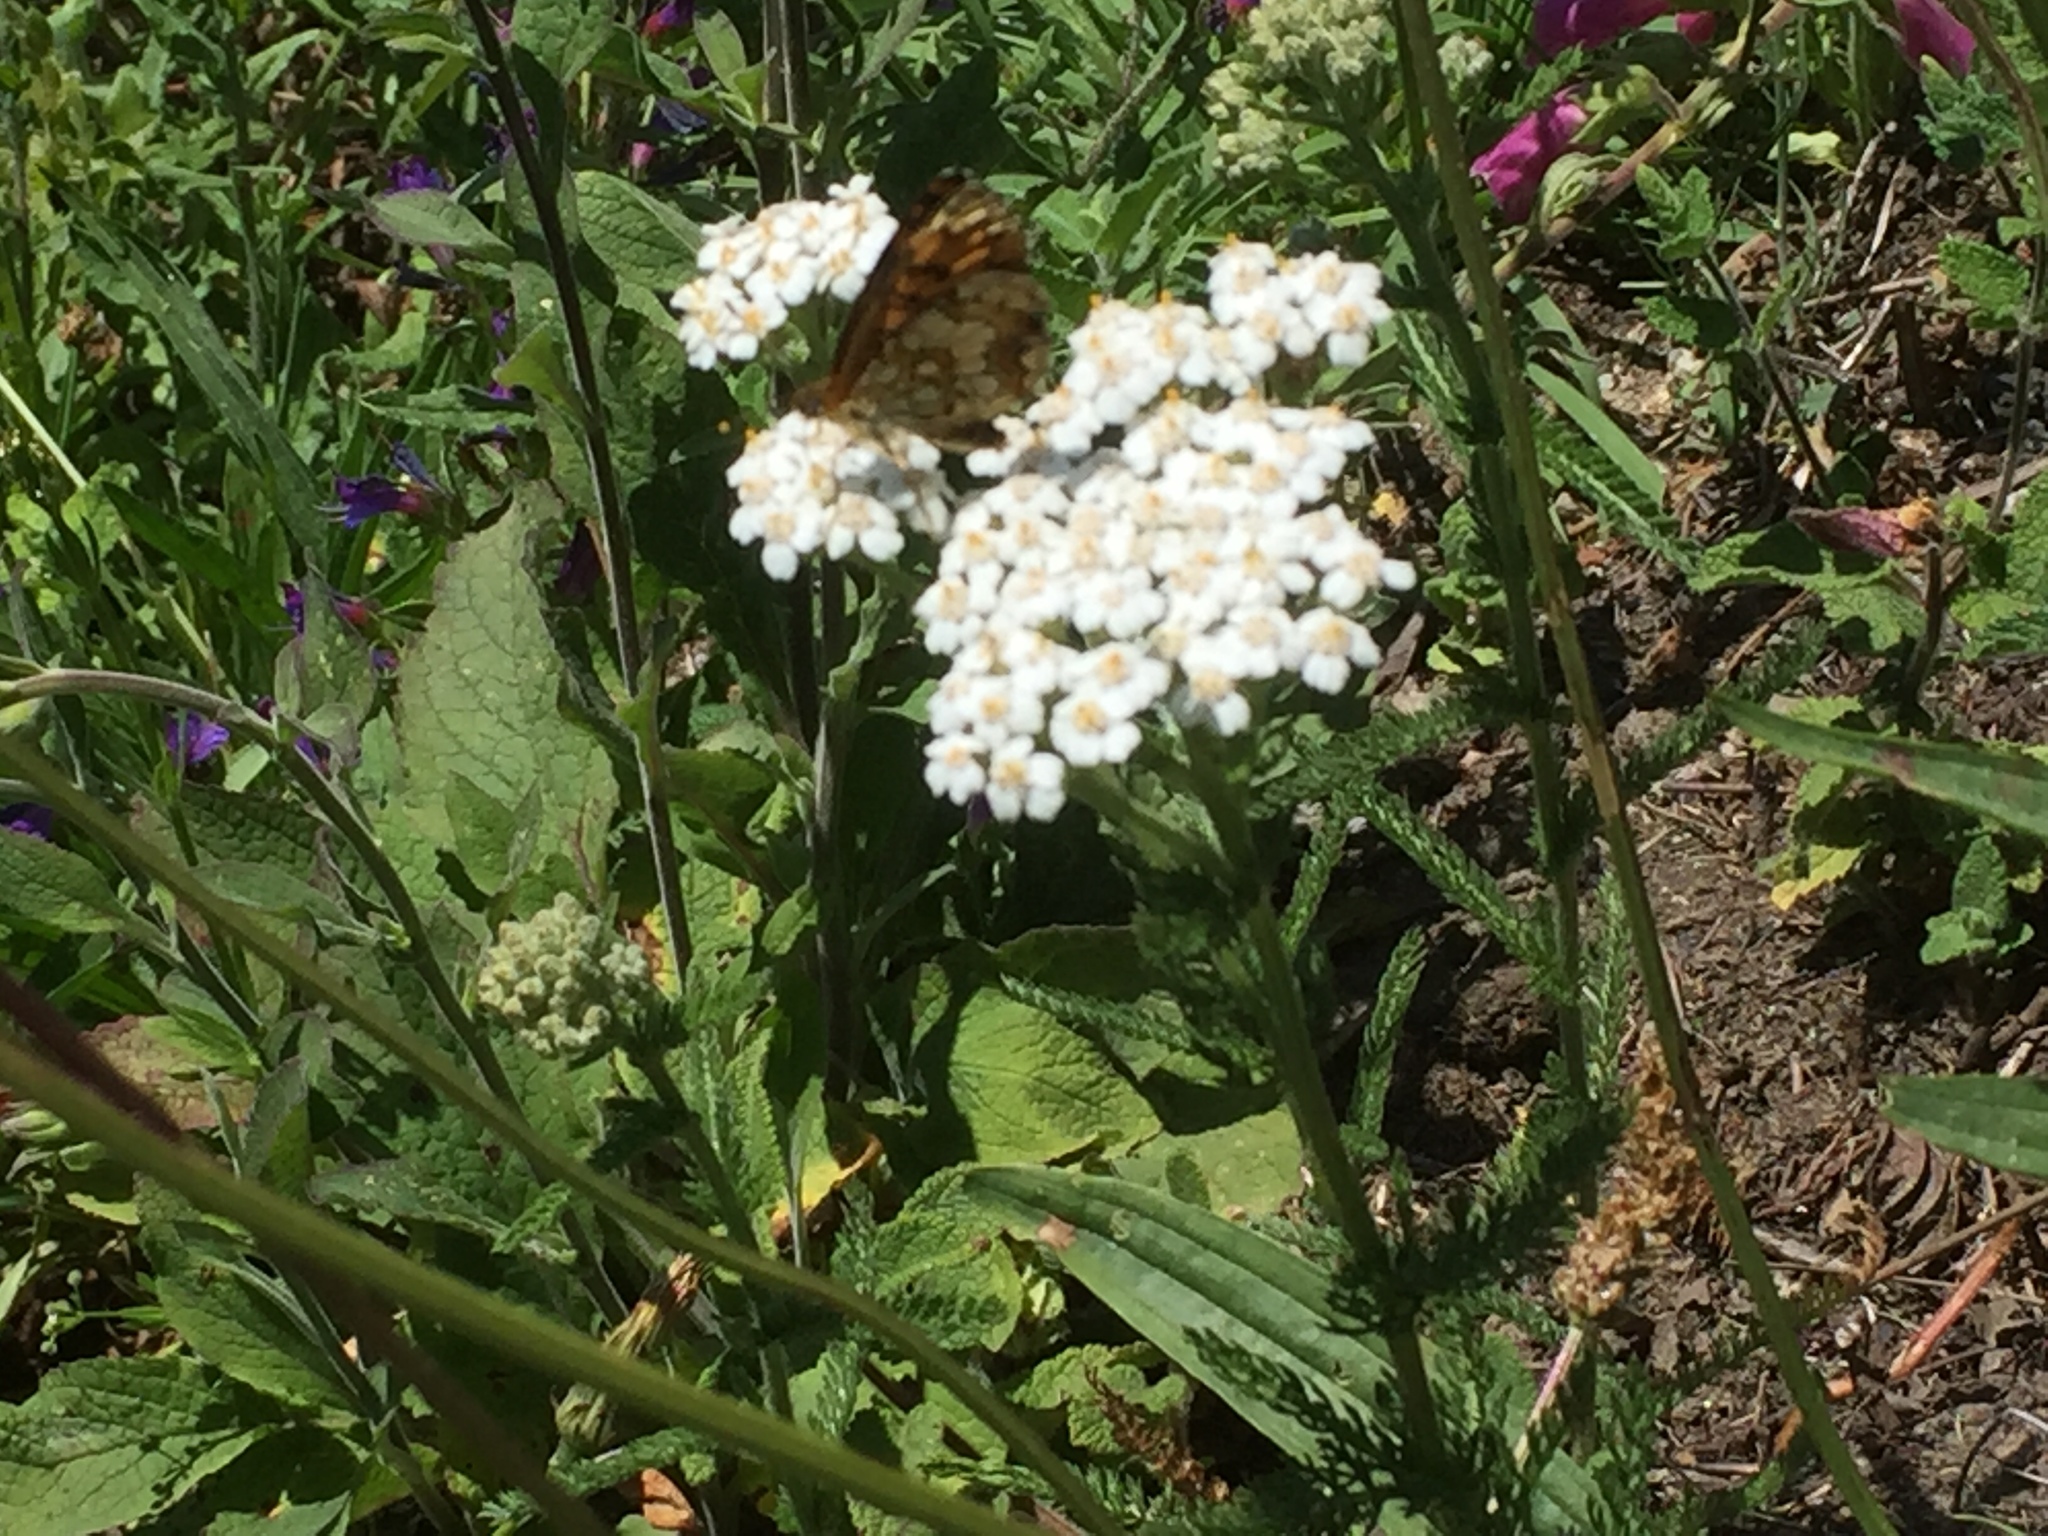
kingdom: Plantae
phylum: Tracheophyta
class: Magnoliopsida
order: Asterales
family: Asteraceae
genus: Achillea
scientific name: Achillea millefolium
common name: Yarrow
